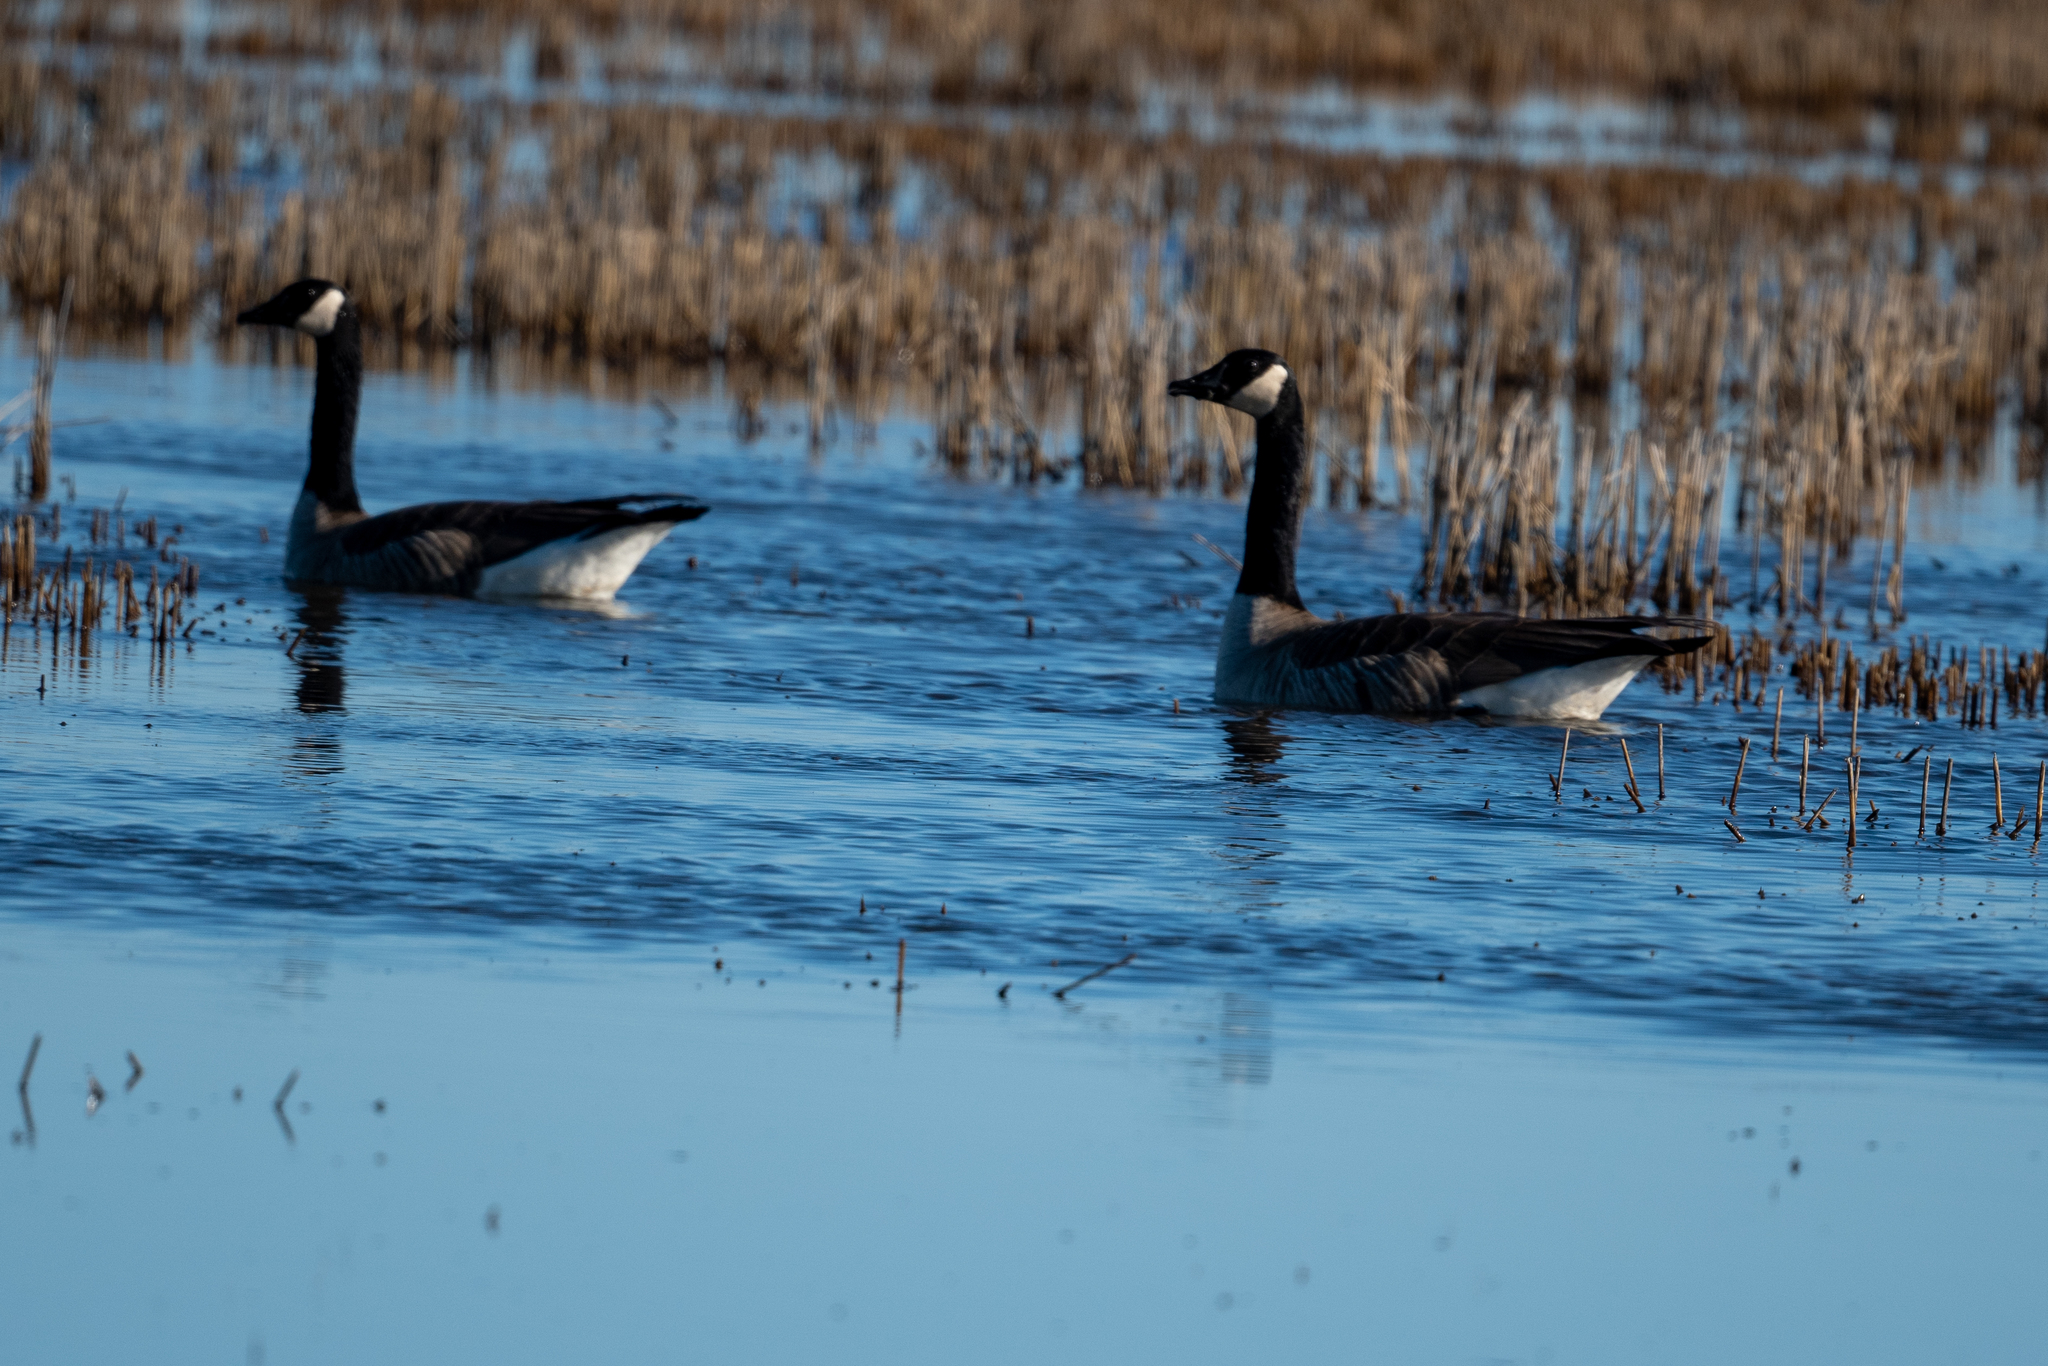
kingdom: Animalia
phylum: Chordata
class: Aves
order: Anseriformes
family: Anatidae
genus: Branta
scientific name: Branta canadensis
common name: Canada goose
